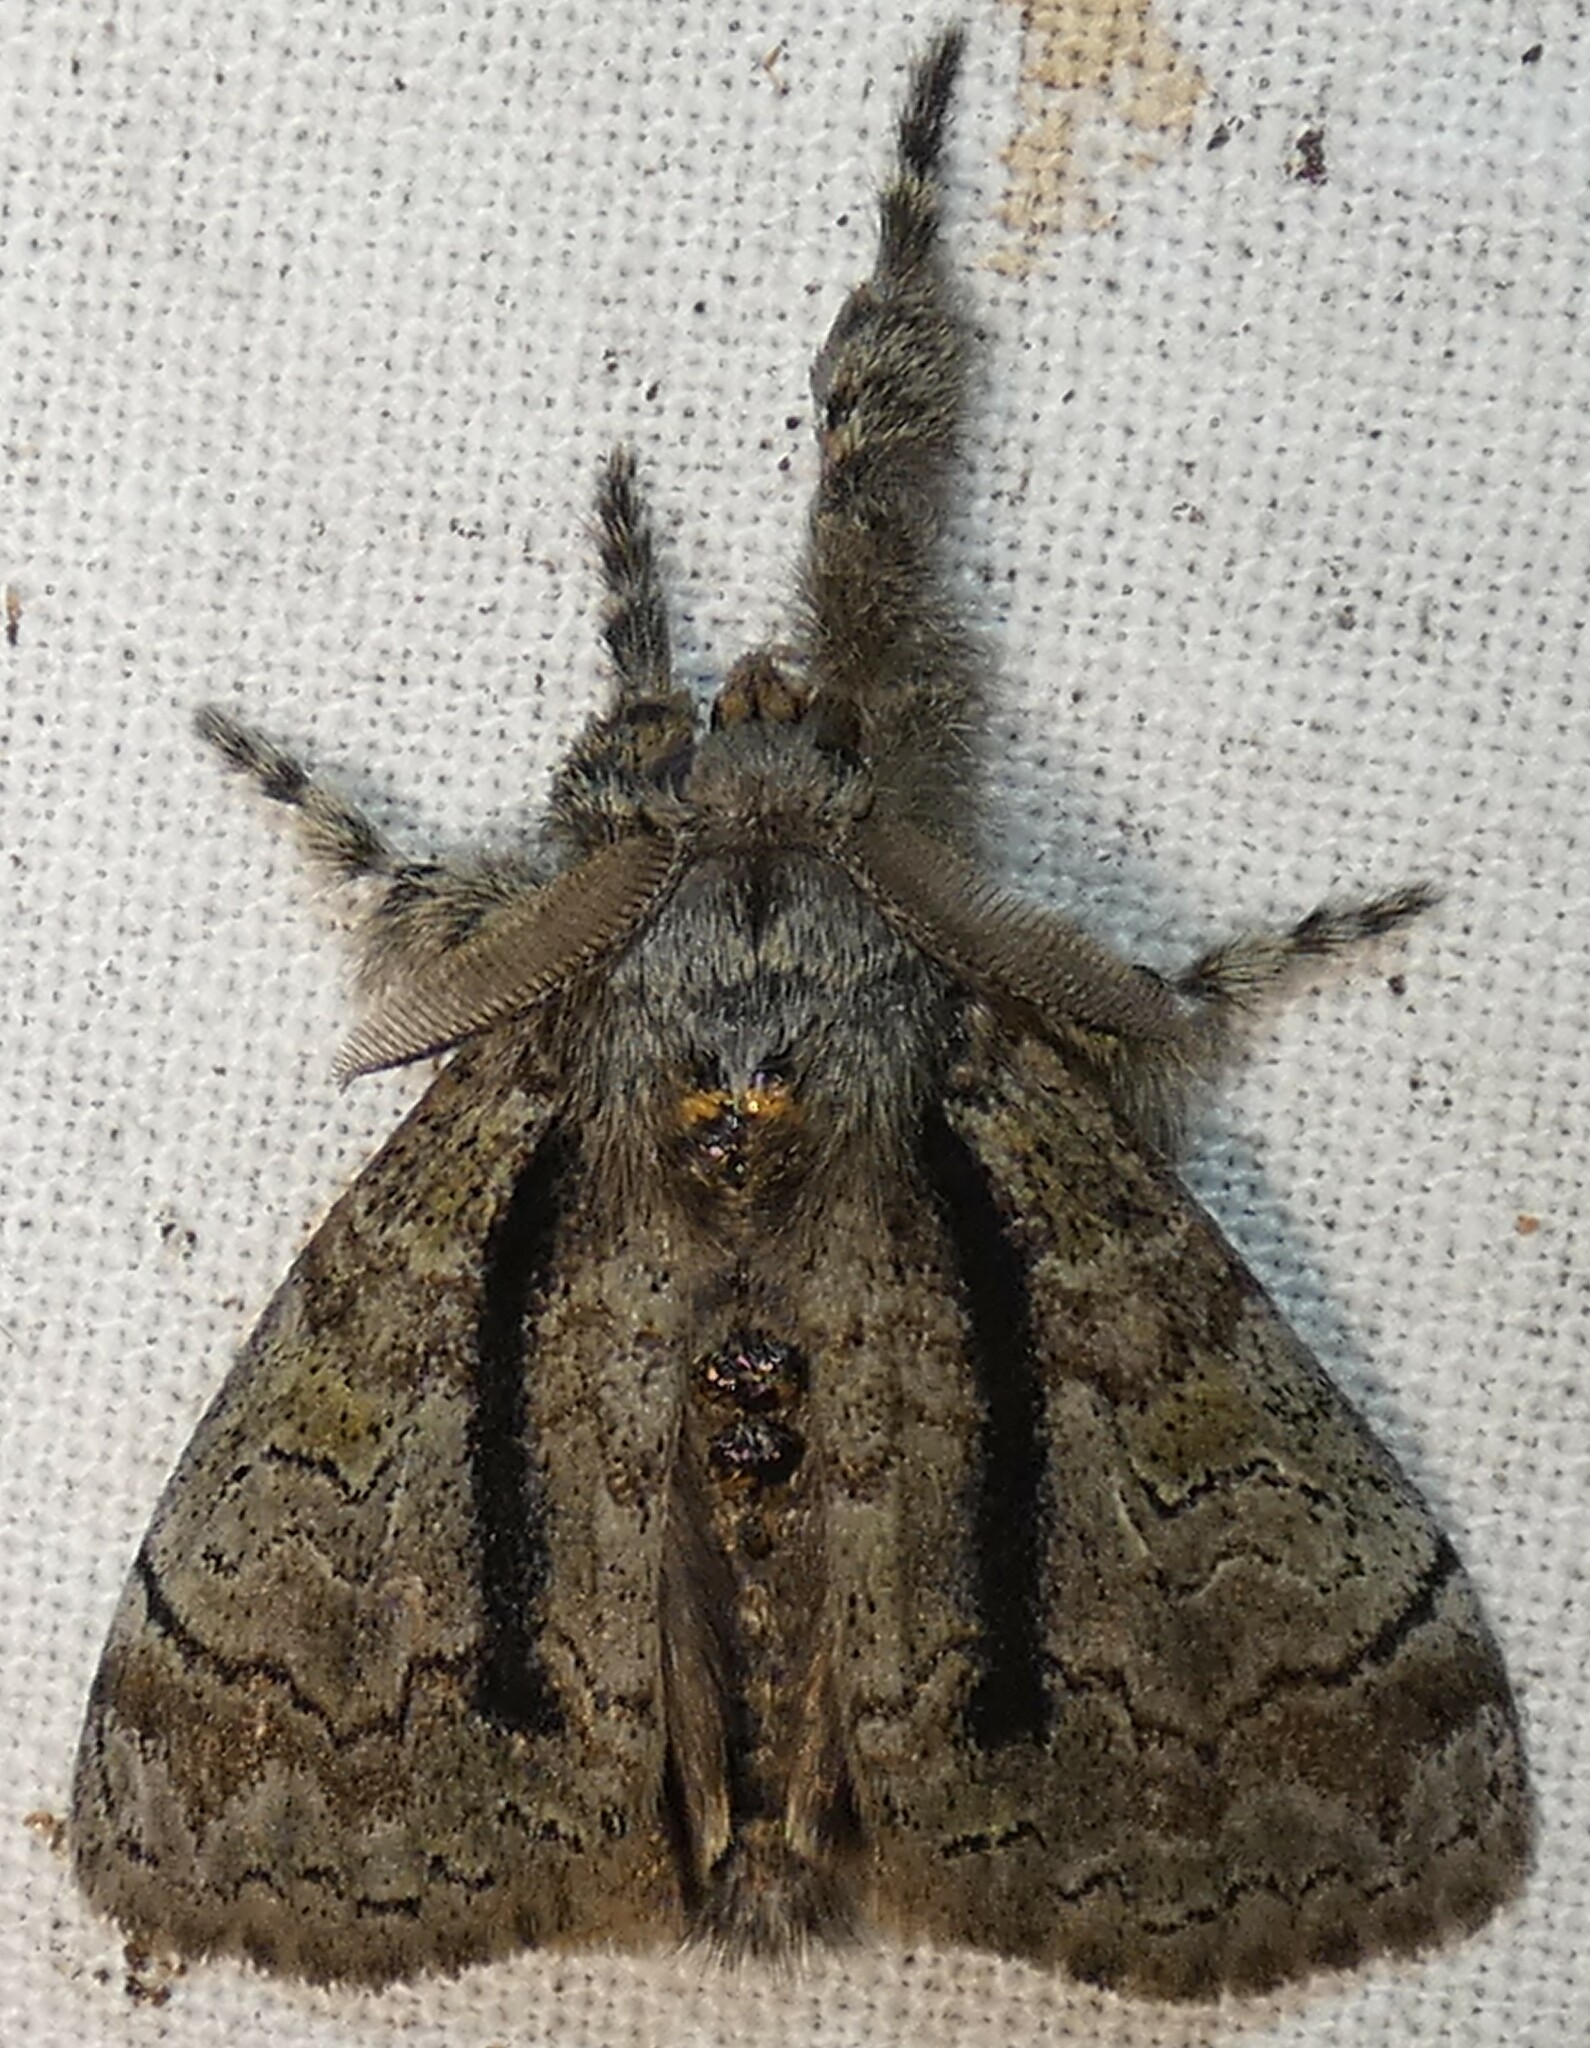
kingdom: Animalia
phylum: Arthropoda
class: Insecta
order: Lepidoptera
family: Erebidae
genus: Dasychira
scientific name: Dasychira tephra
